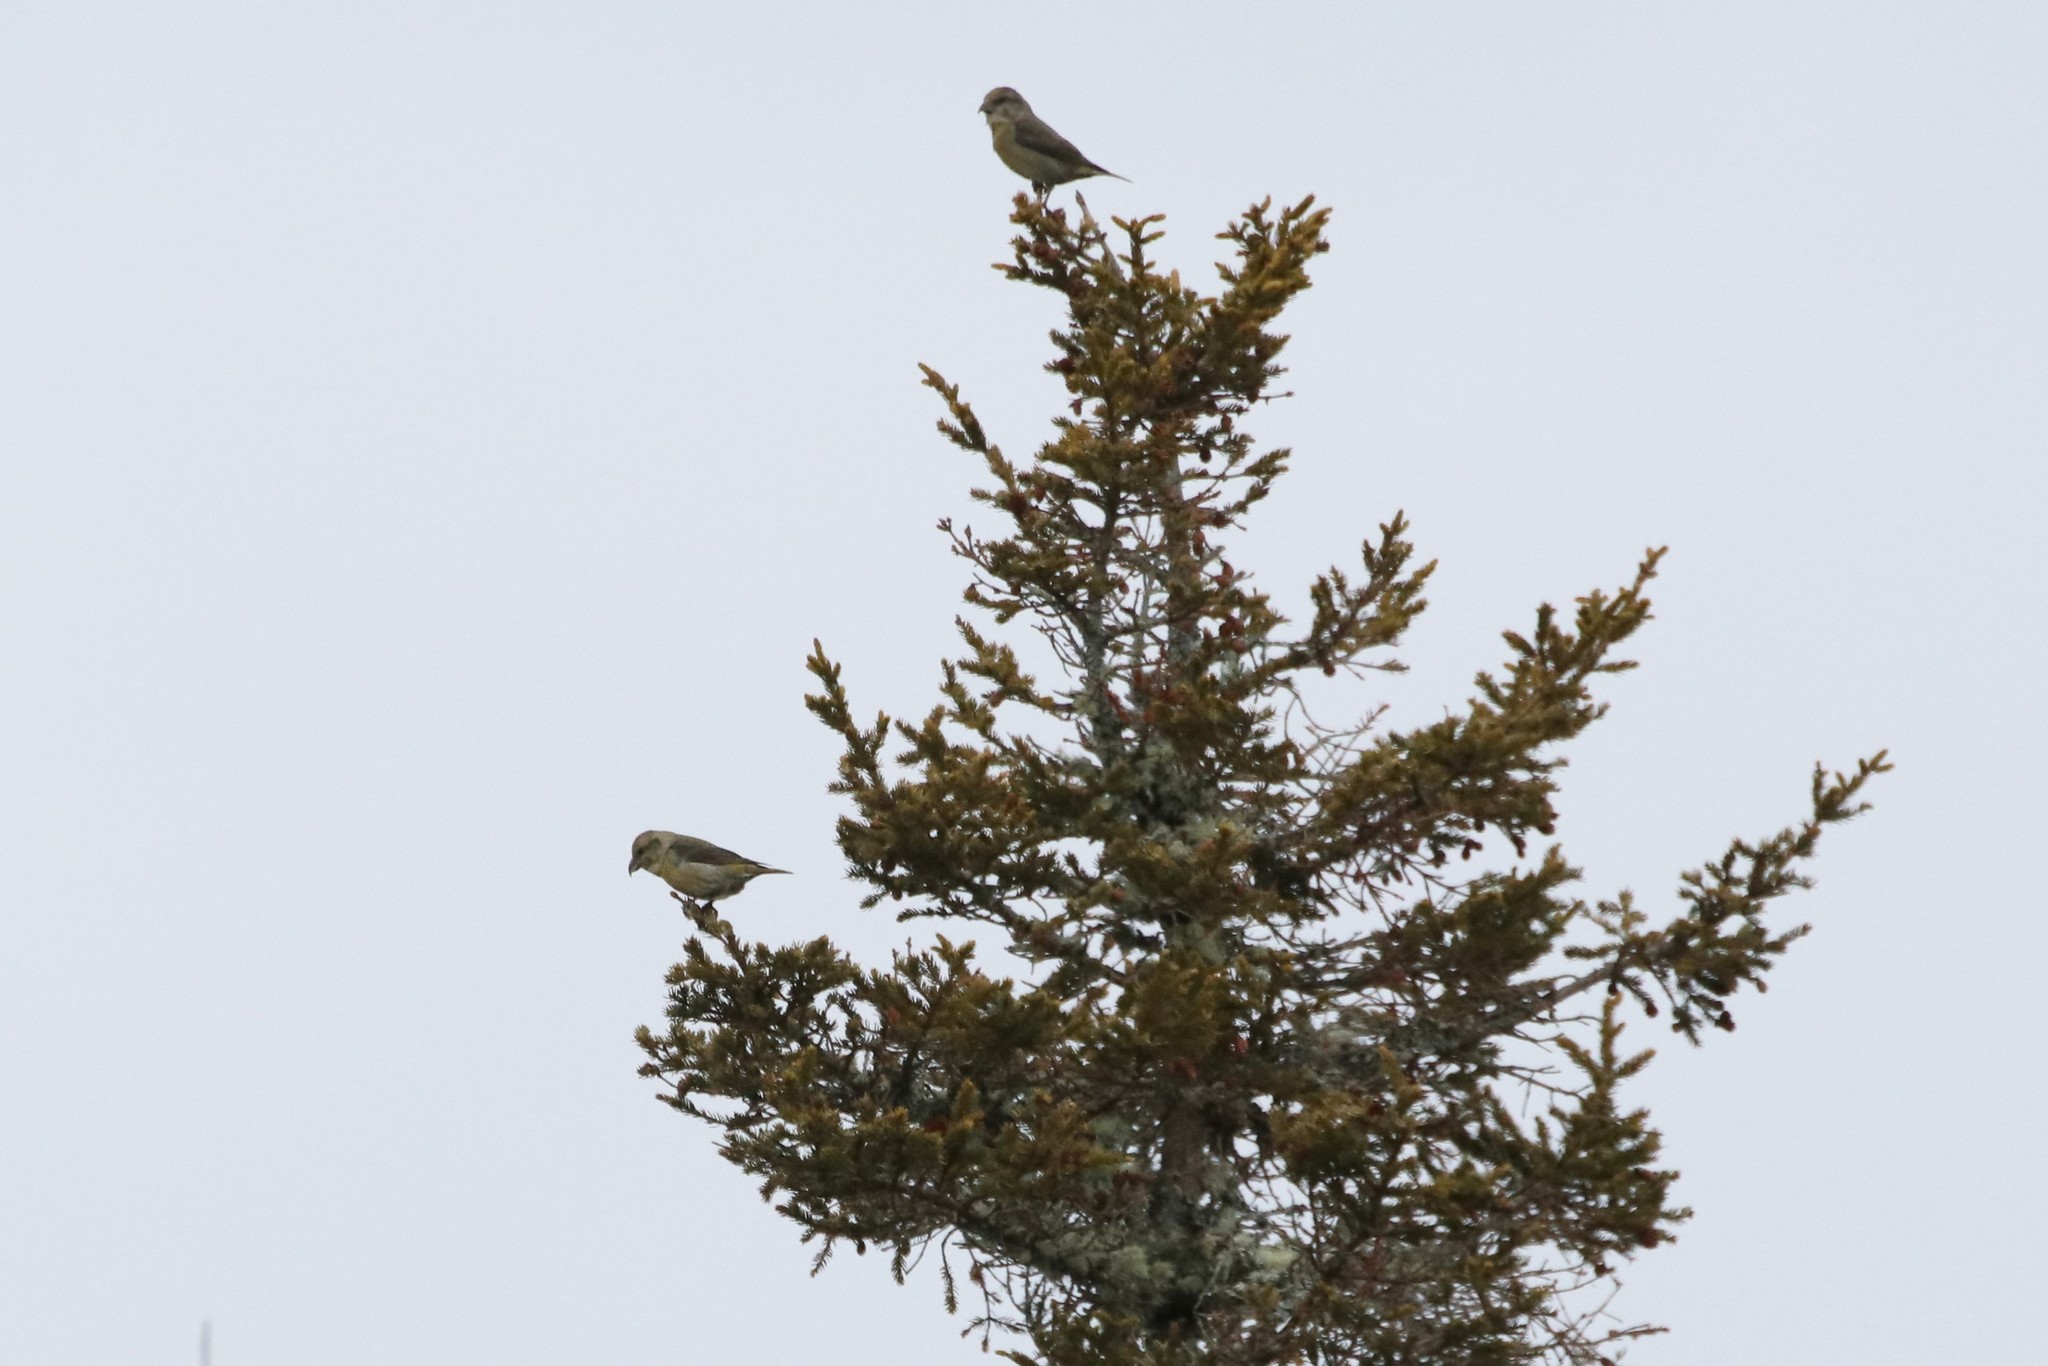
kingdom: Animalia
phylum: Chordata
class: Aves
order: Passeriformes
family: Fringillidae
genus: Loxia
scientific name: Loxia curvirostra
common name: Red crossbill
